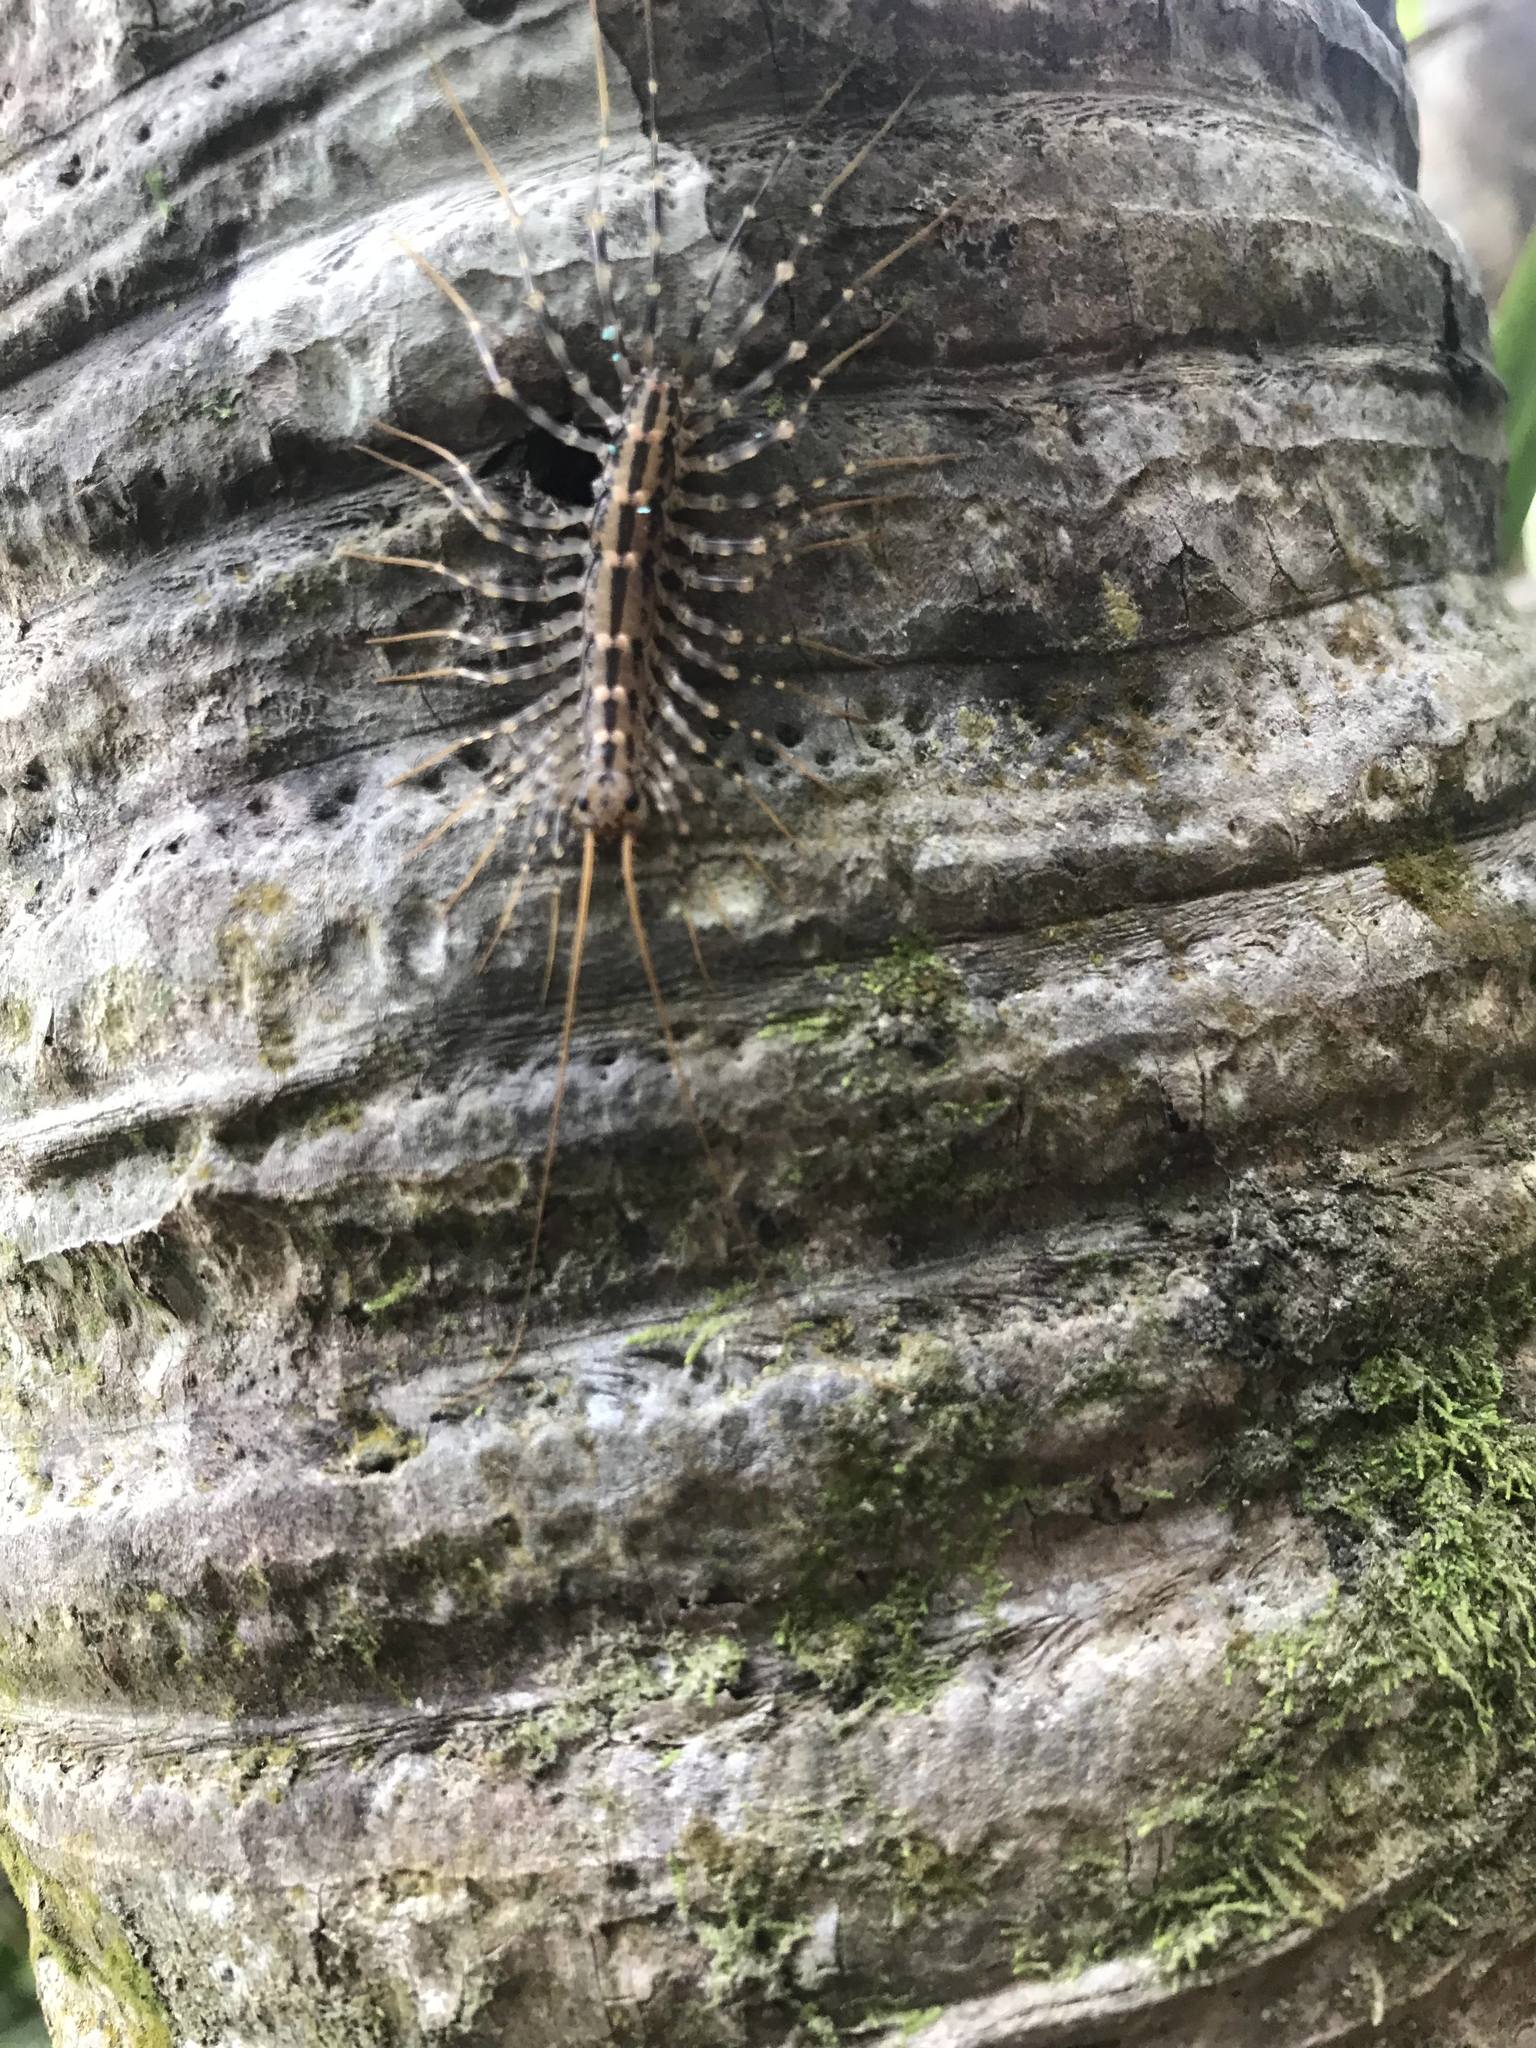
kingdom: Animalia
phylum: Arthropoda
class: Chilopoda
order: Scutigeromorpha
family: Scutigeridae
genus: Scutigera
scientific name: Scutigera coleoptrata
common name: House centipede
